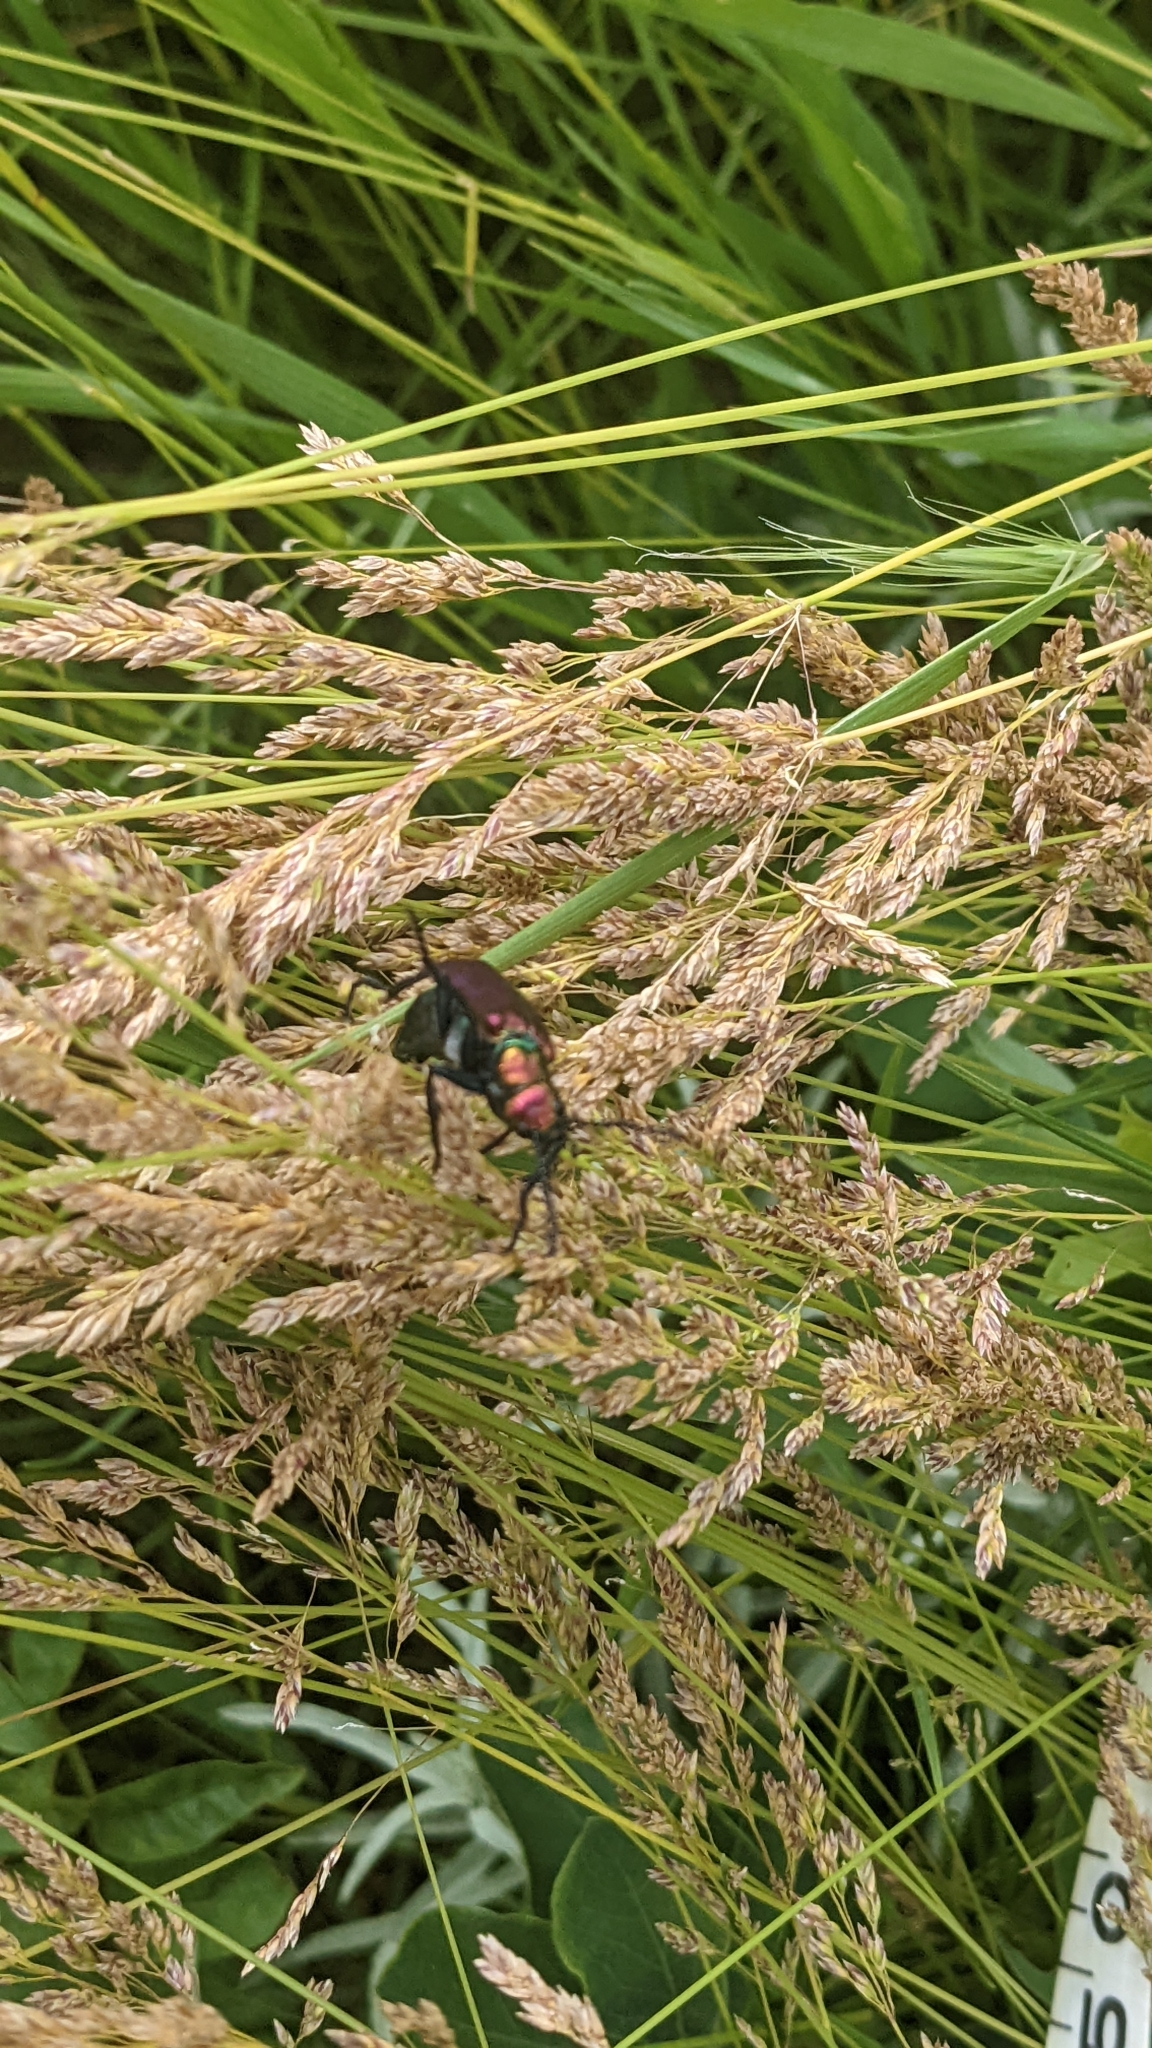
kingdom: Animalia
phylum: Arthropoda
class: Insecta
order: Coleoptera
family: Meloidae
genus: Lytta
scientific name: Lytta nuttallii
